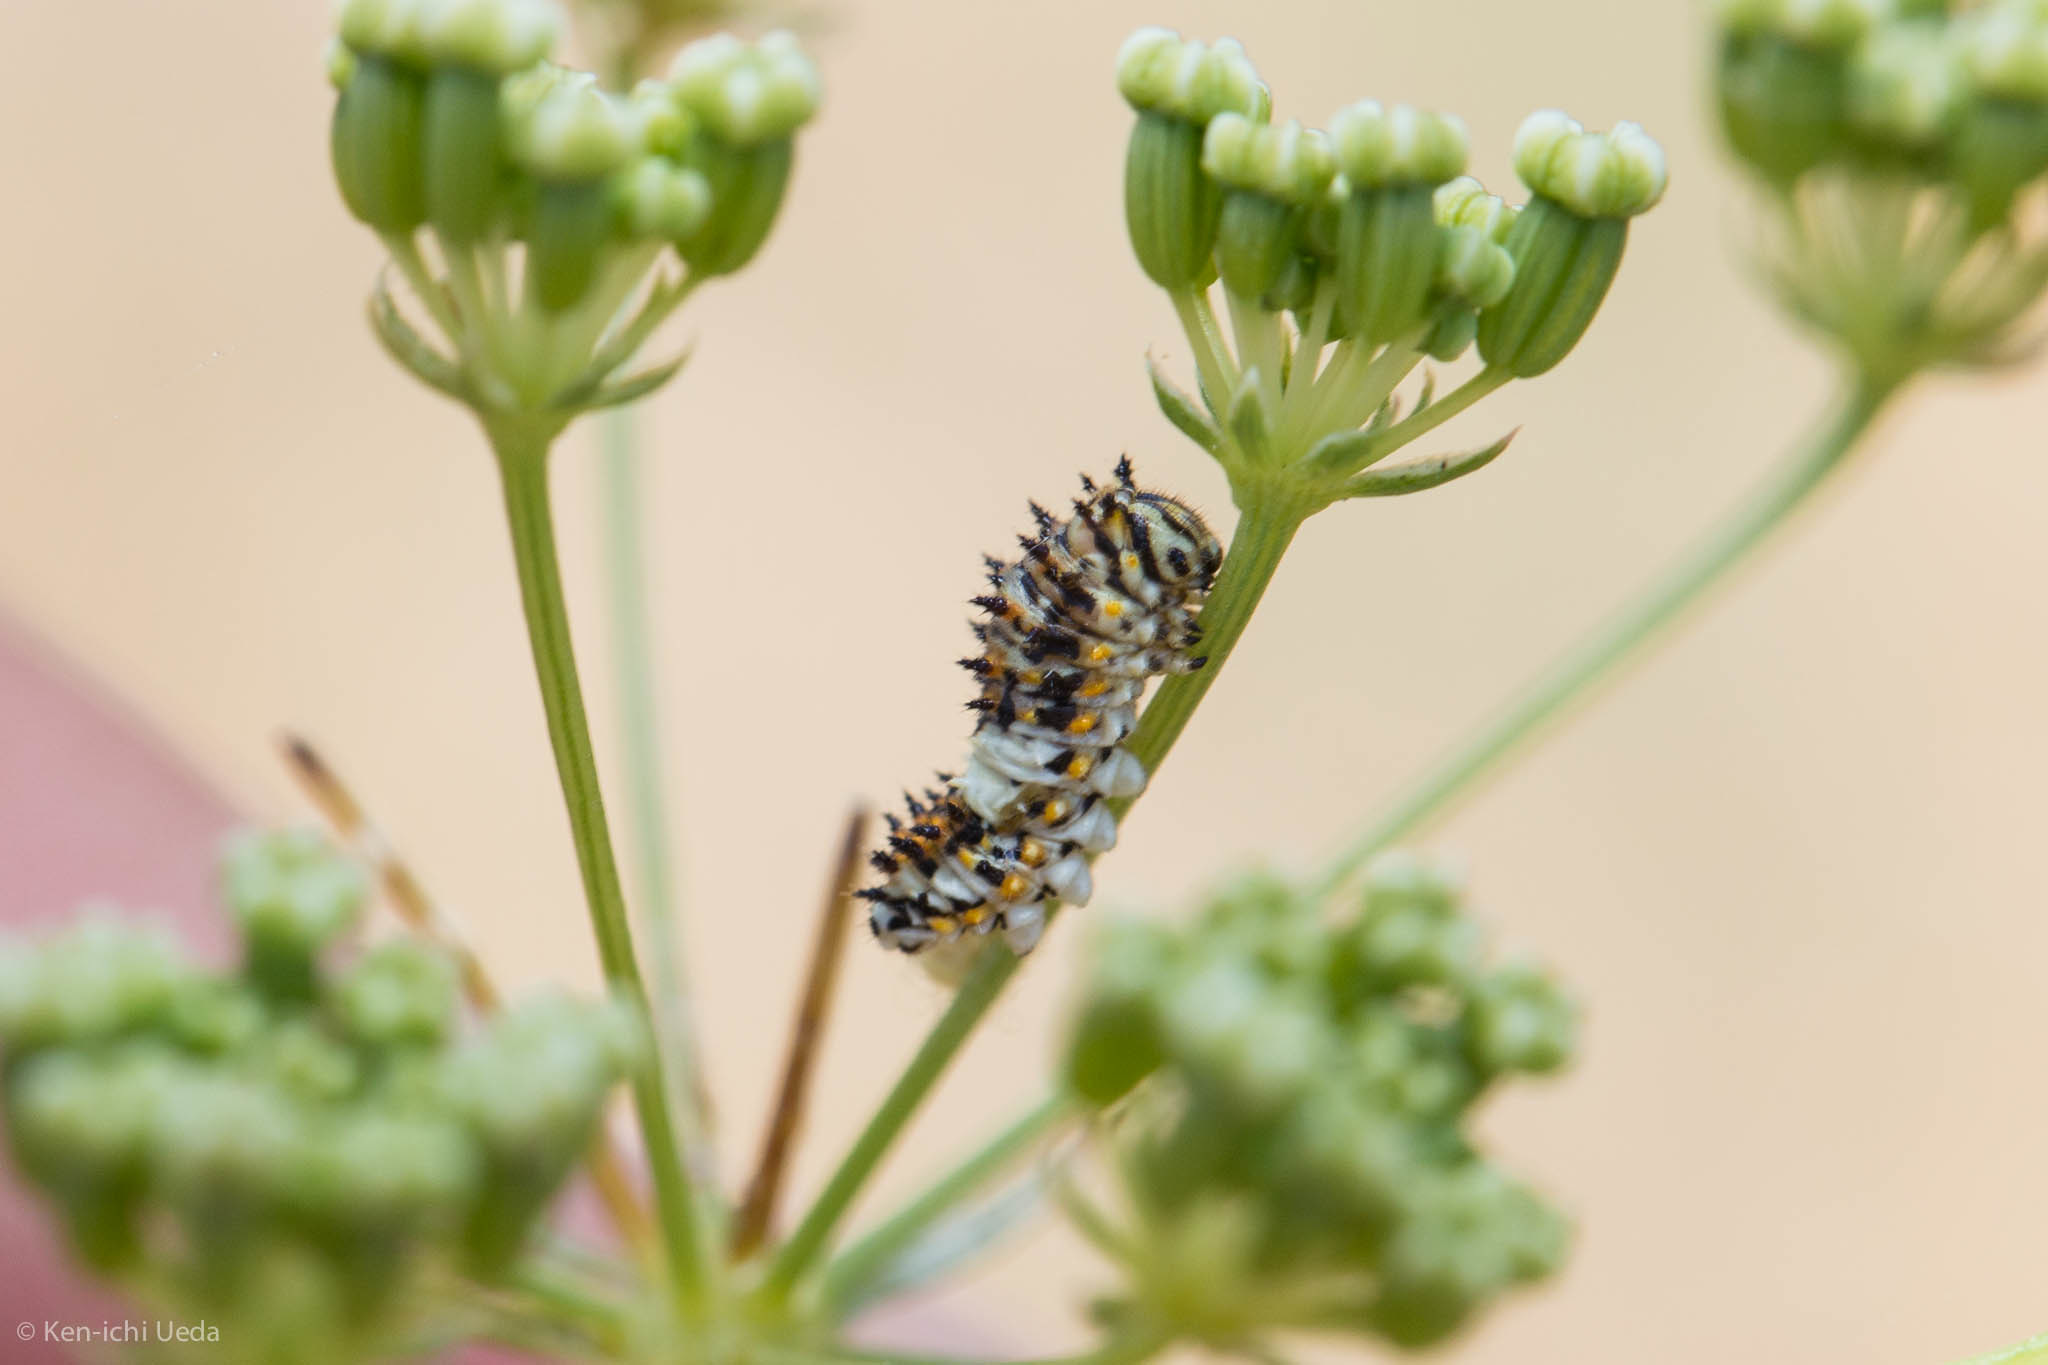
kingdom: Animalia
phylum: Arthropoda
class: Insecta
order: Lepidoptera
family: Papilionidae
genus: Papilio
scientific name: Papilio zelicaon
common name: Anise swallowtail
